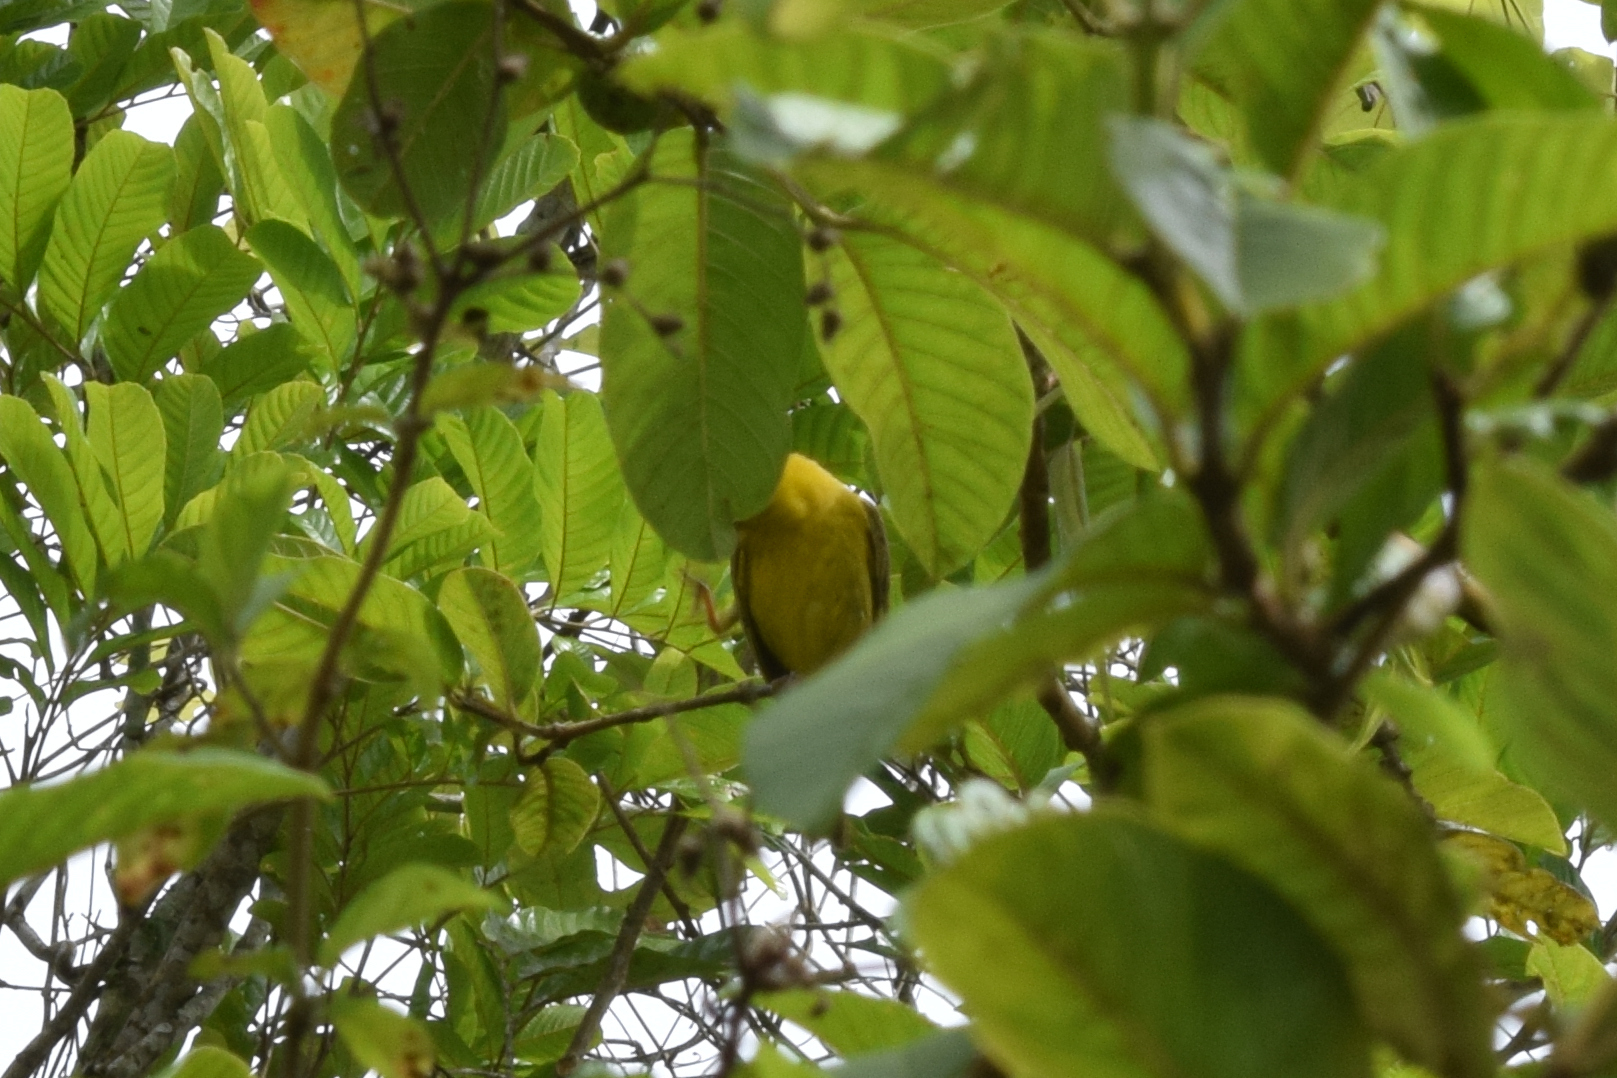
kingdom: Animalia
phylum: Chordata
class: Aves
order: Passeriformes
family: Thraupidae
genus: Sicalis
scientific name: Sicalis flaveola
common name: Saffron finch
